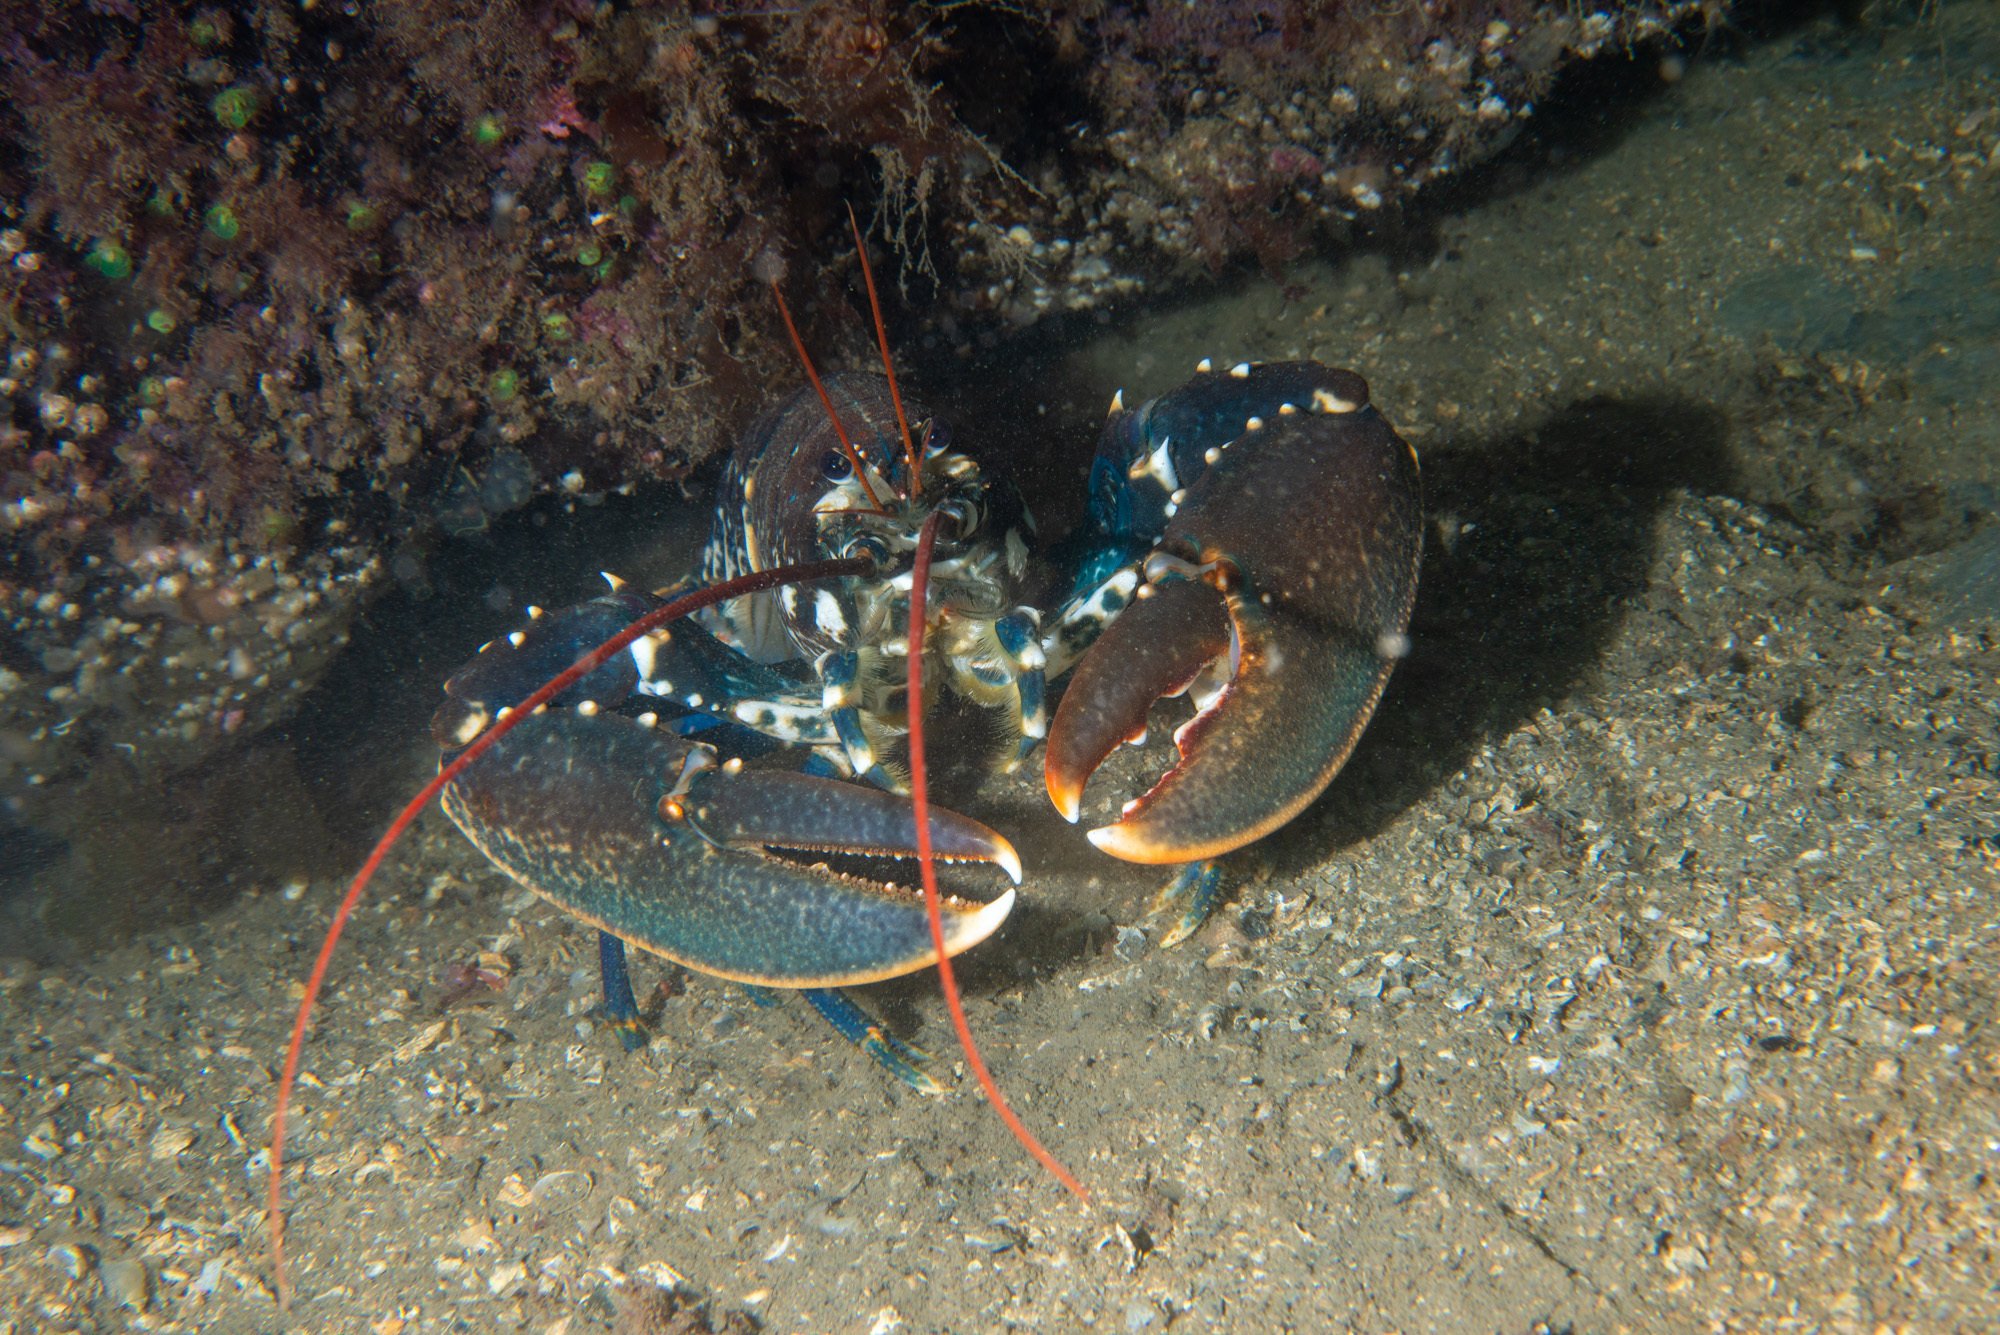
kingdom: Animalia
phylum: Arthropoda
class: Malacostraca
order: Decapoda
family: Nephropidae
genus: Homarus
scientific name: Homarus gammarus
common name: European lobster
